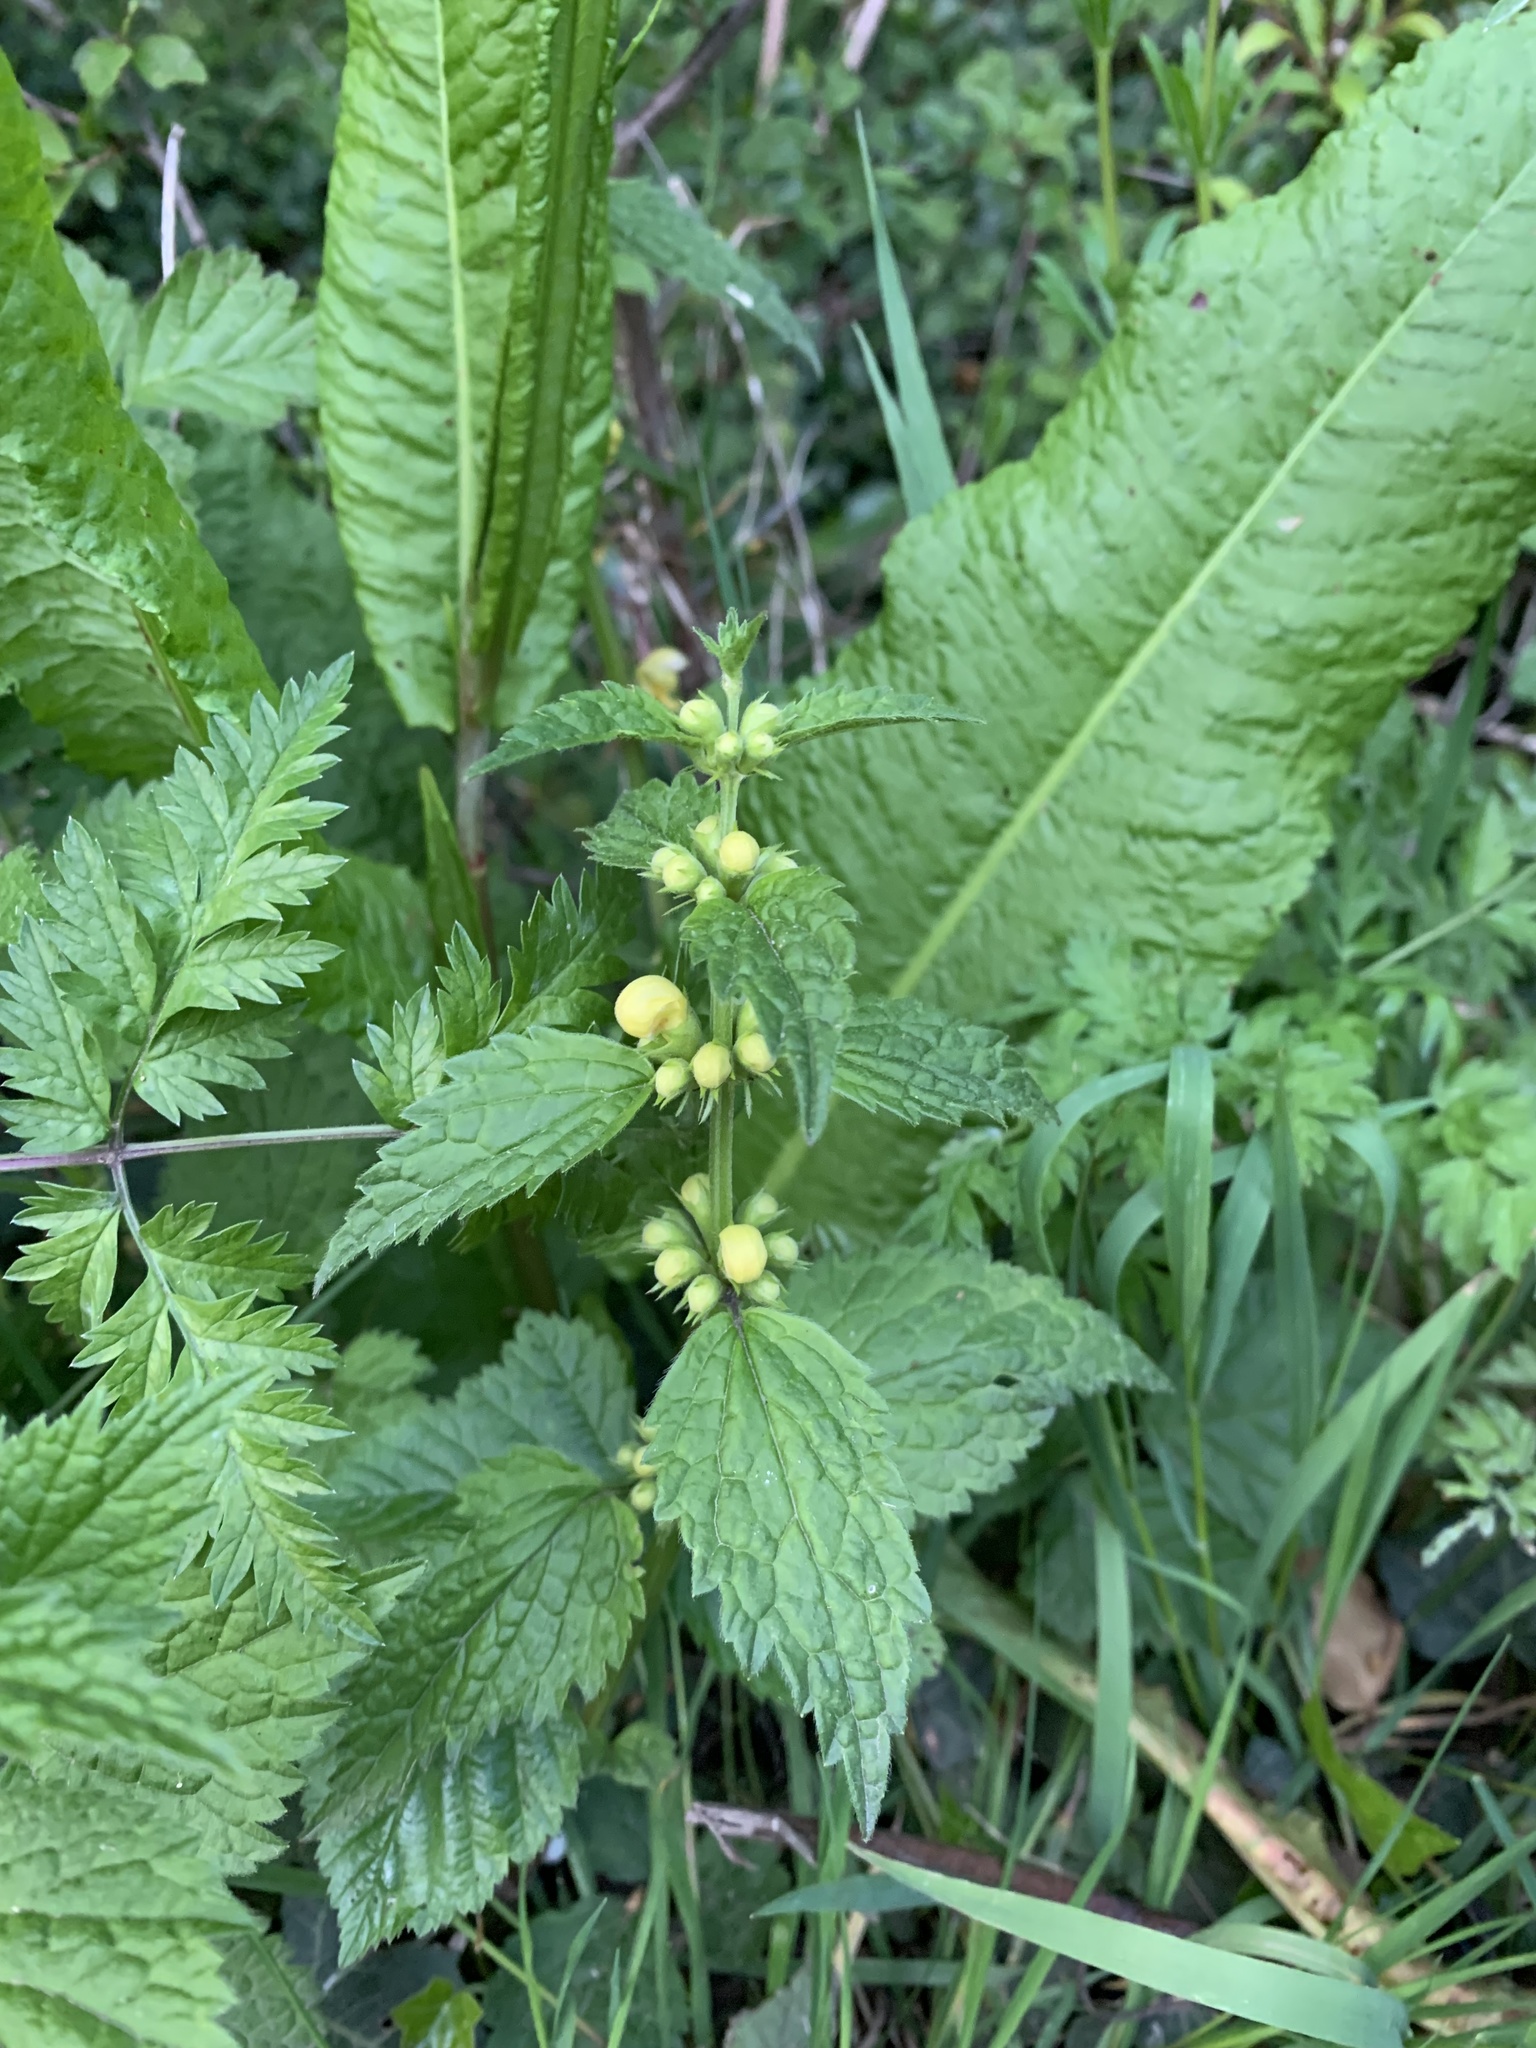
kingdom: Plantae
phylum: Tracheophyta
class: Magnoliopsida
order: Lamiales
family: Lamiaceae
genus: Lamium
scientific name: Lamium galeobdolon
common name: Yellow archangel
